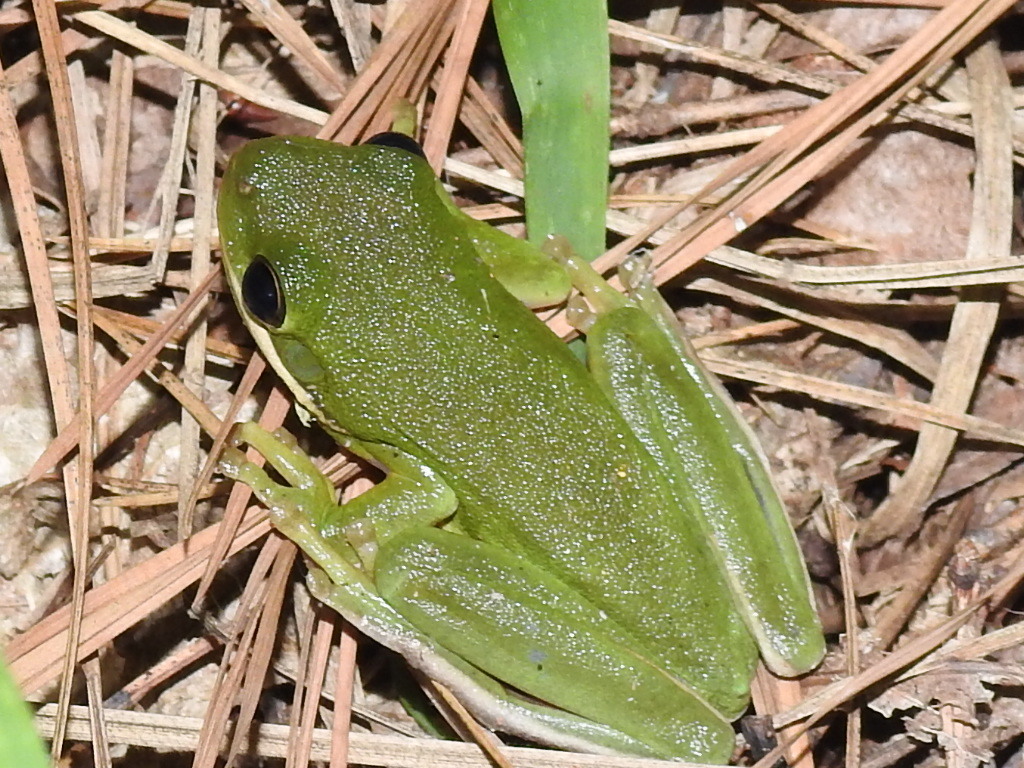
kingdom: Animalia
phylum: Chordata
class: Amphibia
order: Anura
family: Hylidae
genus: Dryophytes
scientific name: Dryophytes cinereus
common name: Green treefrog
